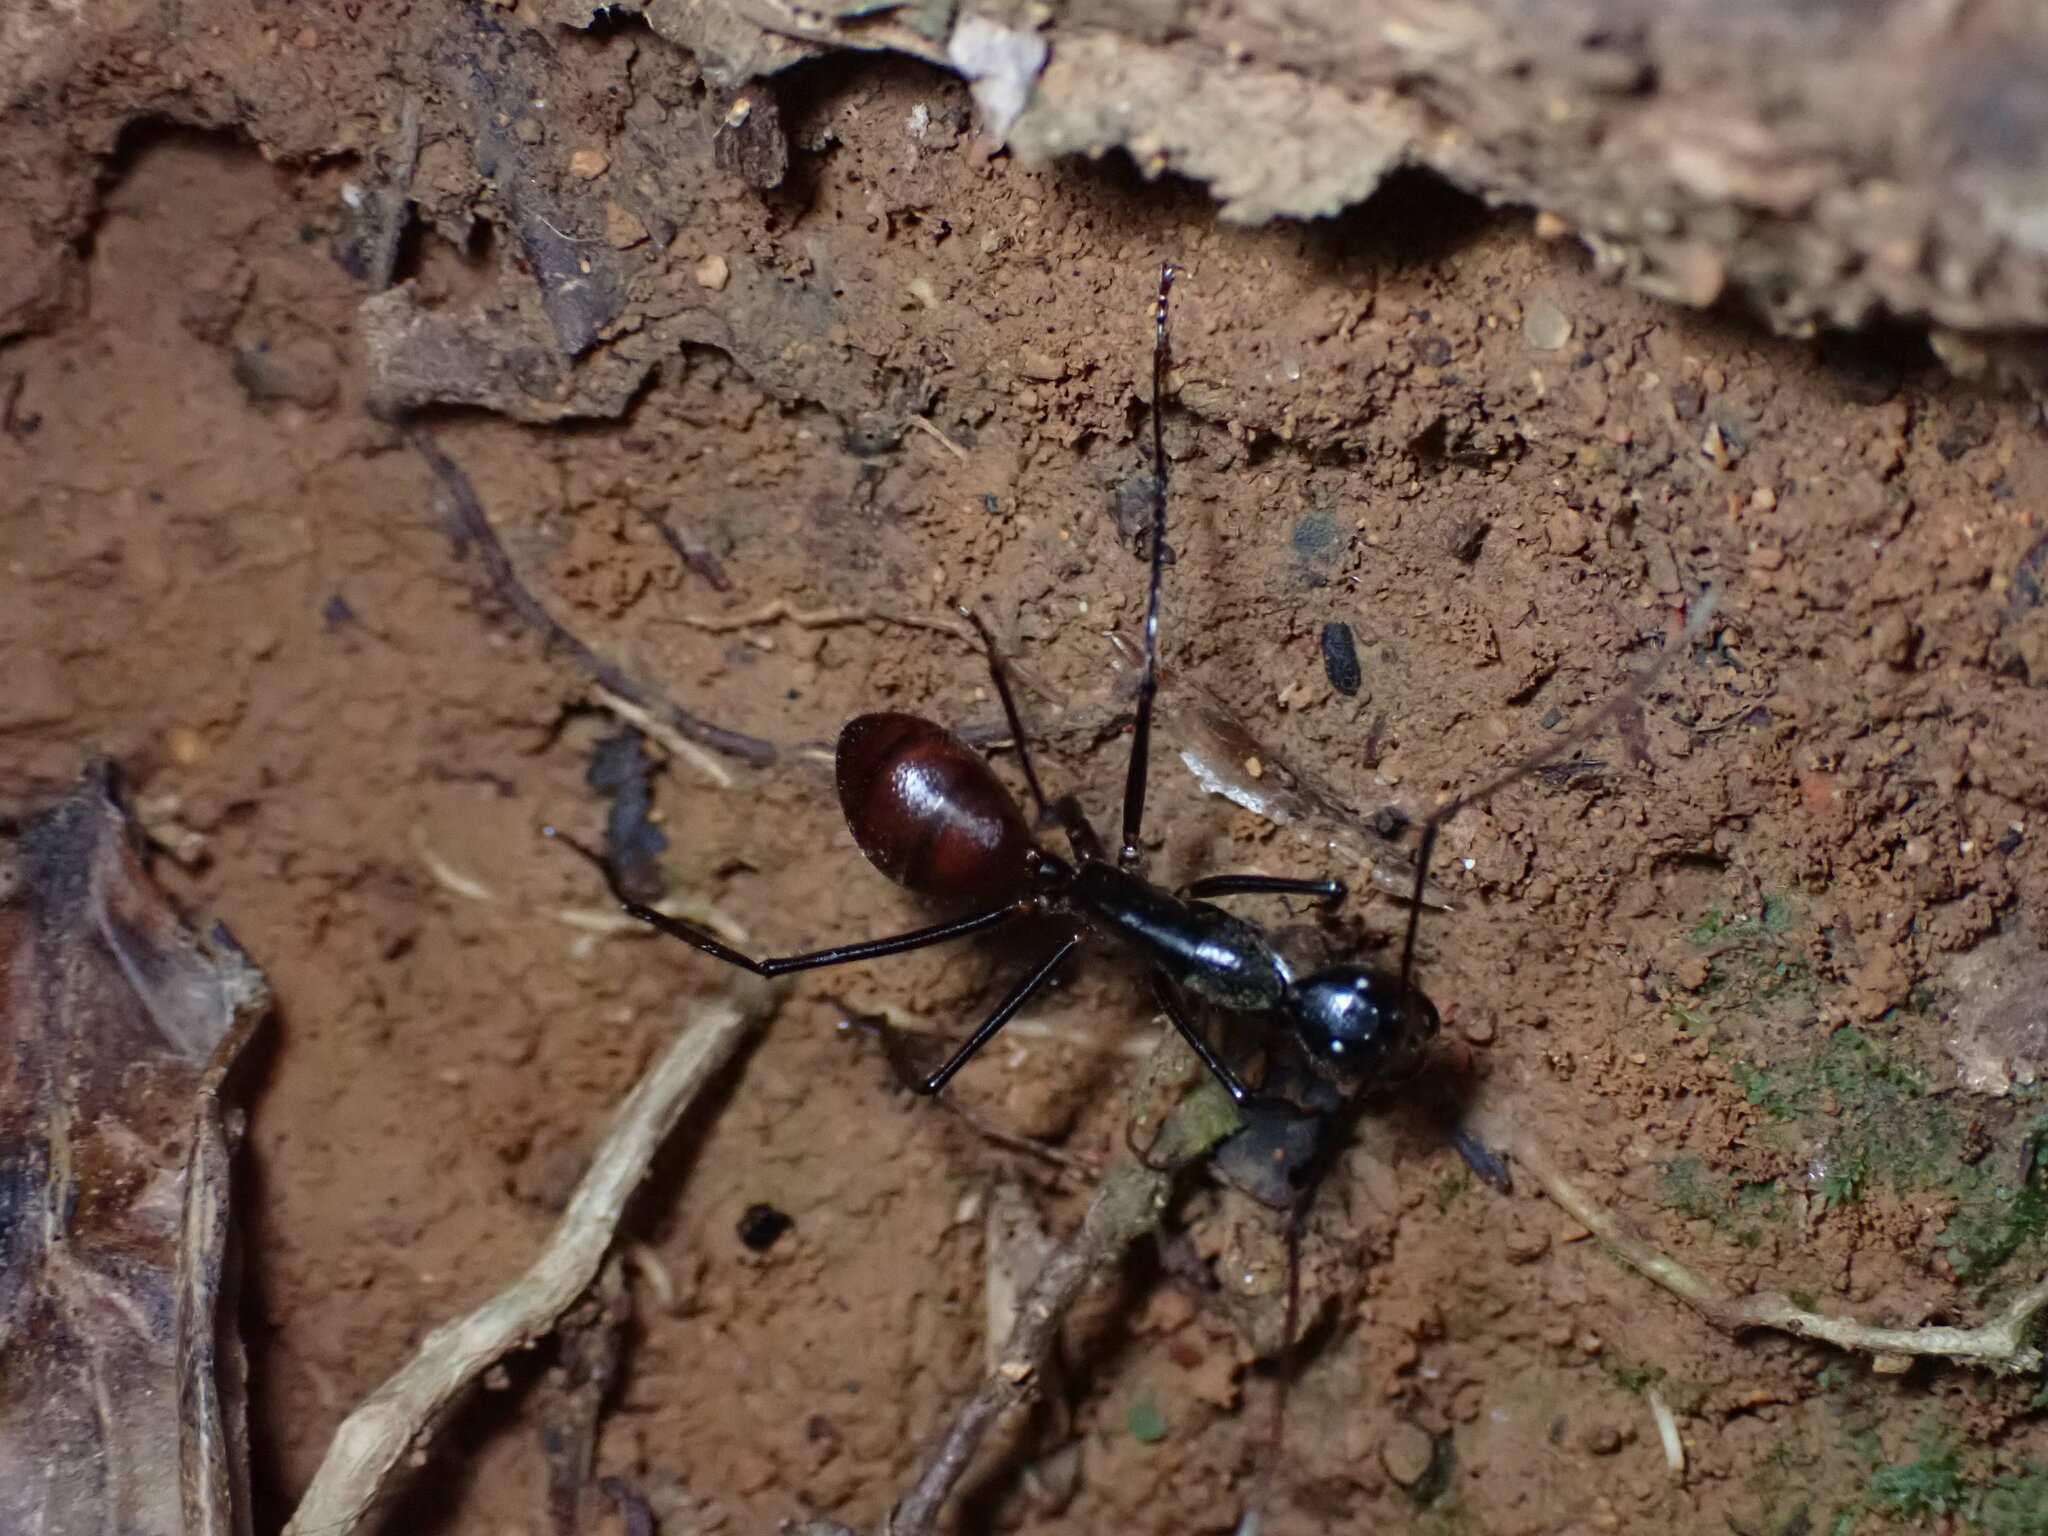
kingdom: Animalia
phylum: Arthropoda
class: Insecta
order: Hymenoptera
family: Formicidae
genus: Dinomyrmex
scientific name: Dinomyrmex
